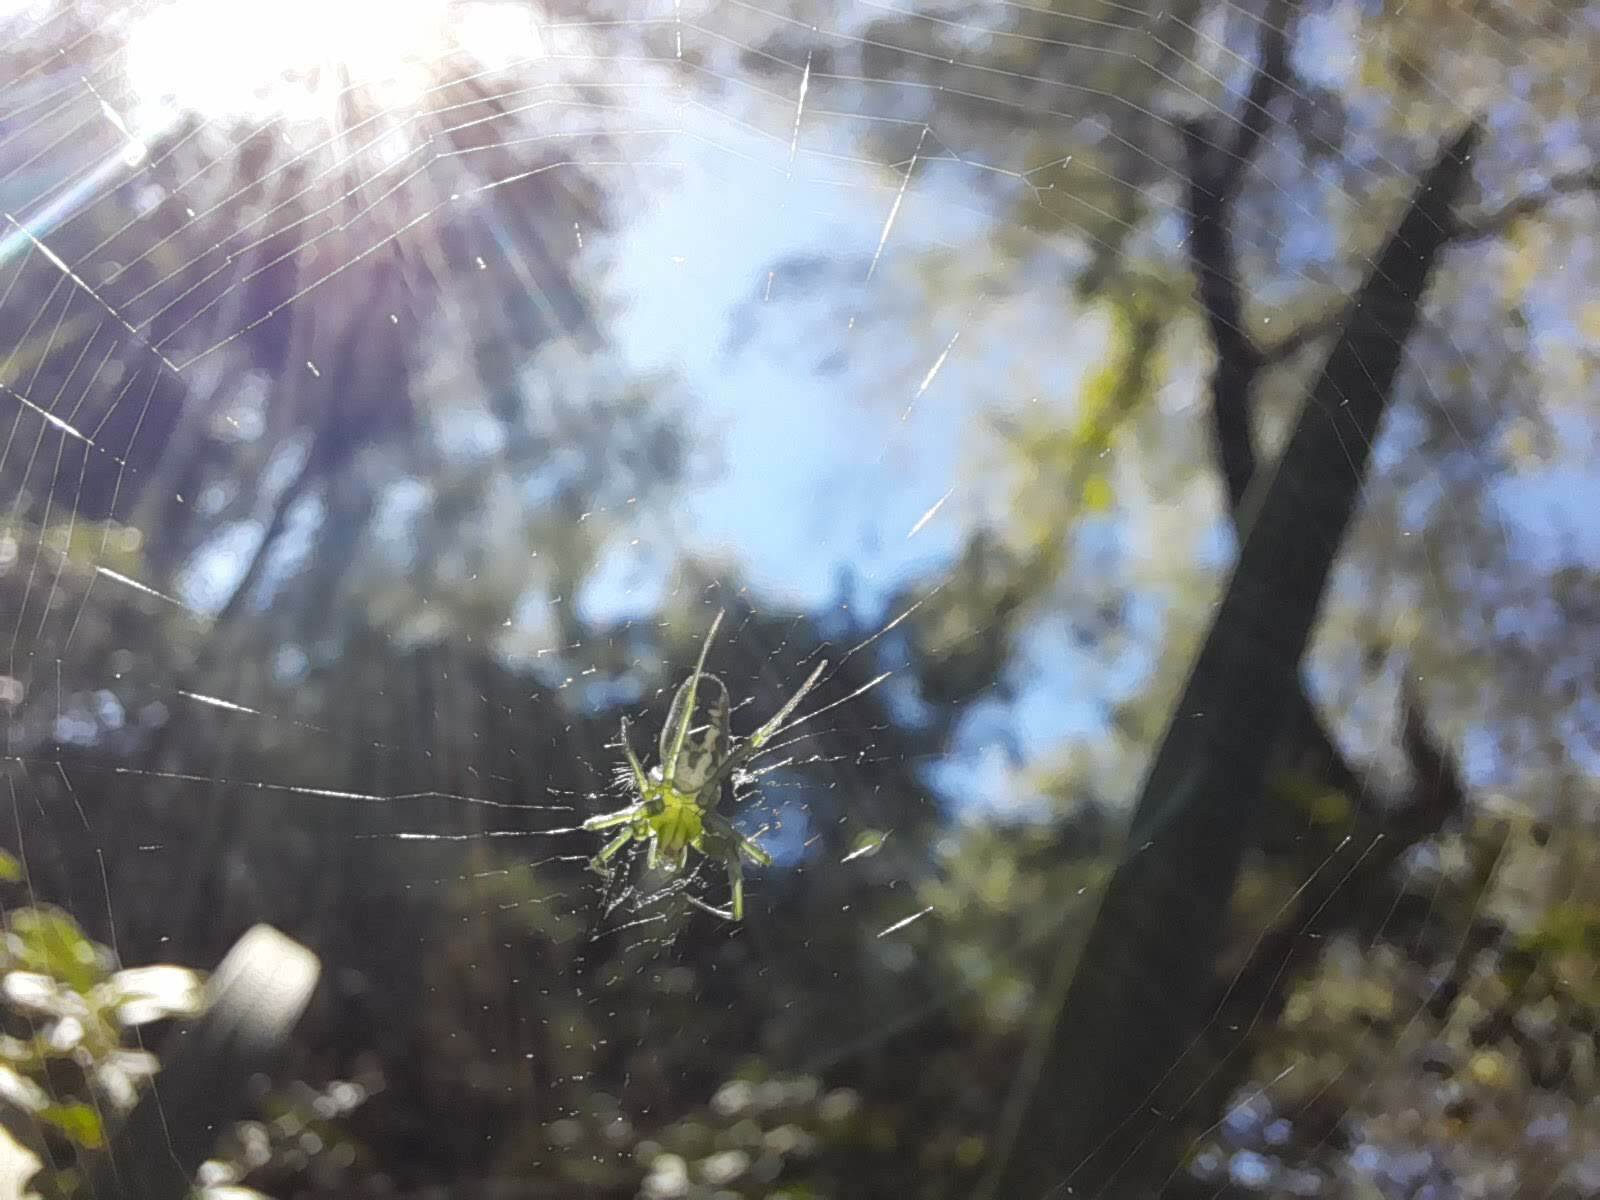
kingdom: Animalia
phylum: Arthropoda
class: Arachnida
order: Araneae
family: Araneidae
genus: Mangora
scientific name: Mangora lactea
